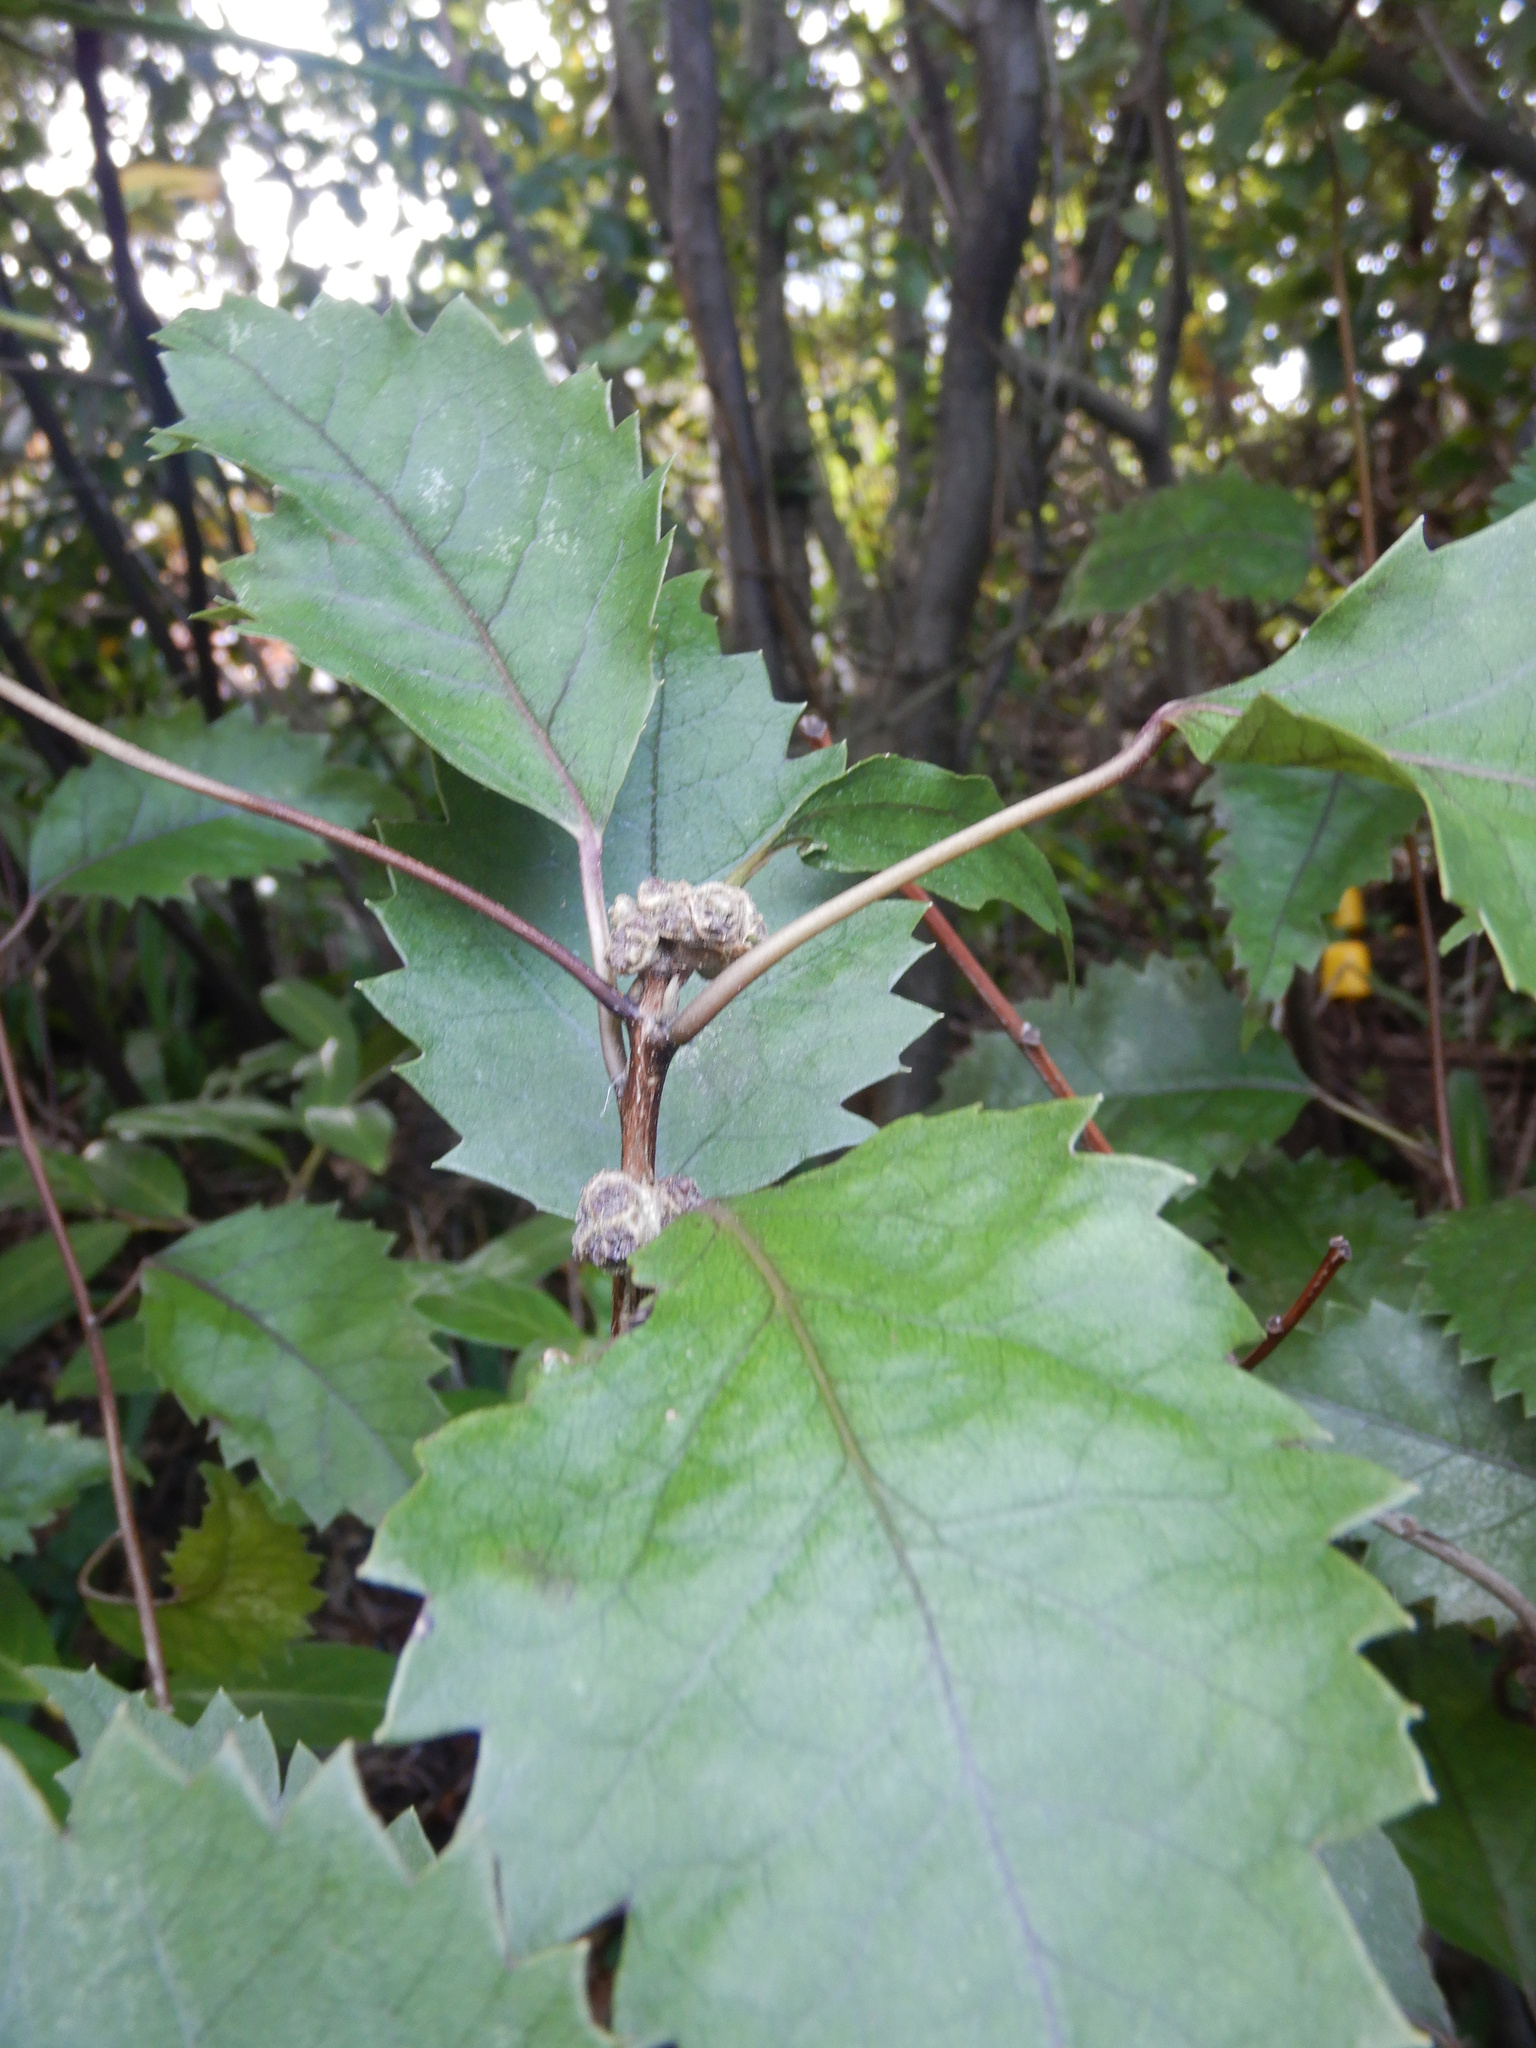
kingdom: Plantae
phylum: Tracheophyta
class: Magnoliopsida
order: Malvales
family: Malvaceae
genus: Hoheria
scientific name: Hoheria populnea
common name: Lacebark
